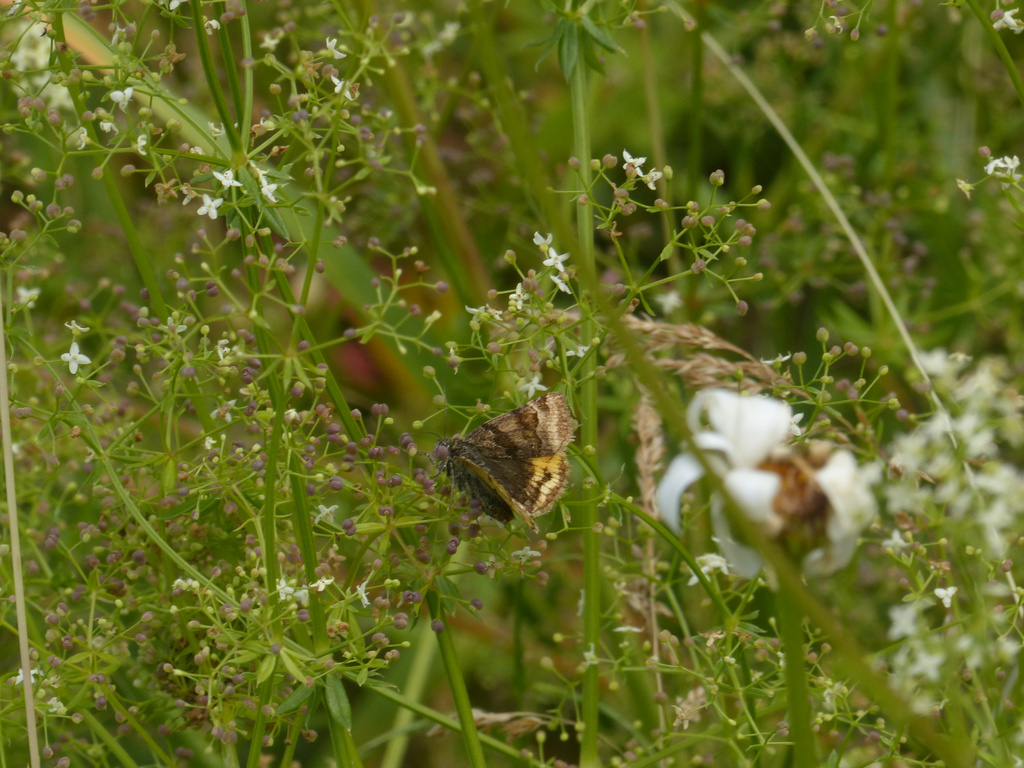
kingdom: Animalia
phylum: Arthropoda
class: Insecta
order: Lepidoptera
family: Erebidae
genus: Euclidia
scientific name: Euclidia glyphica
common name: Burnet companion
